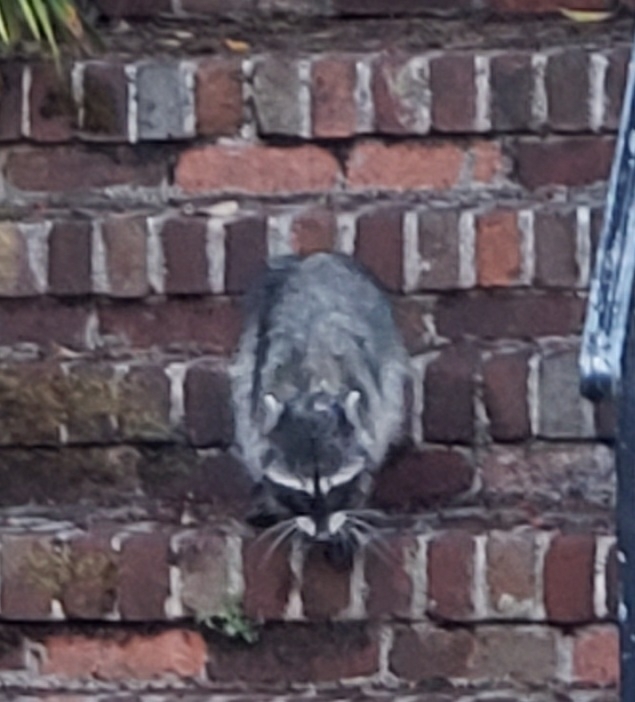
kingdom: Animalia
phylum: Chordata
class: Mammalia
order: Carnivora
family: Procyonidae
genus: Procyon
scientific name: Procyon lotor
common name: Raccoon
